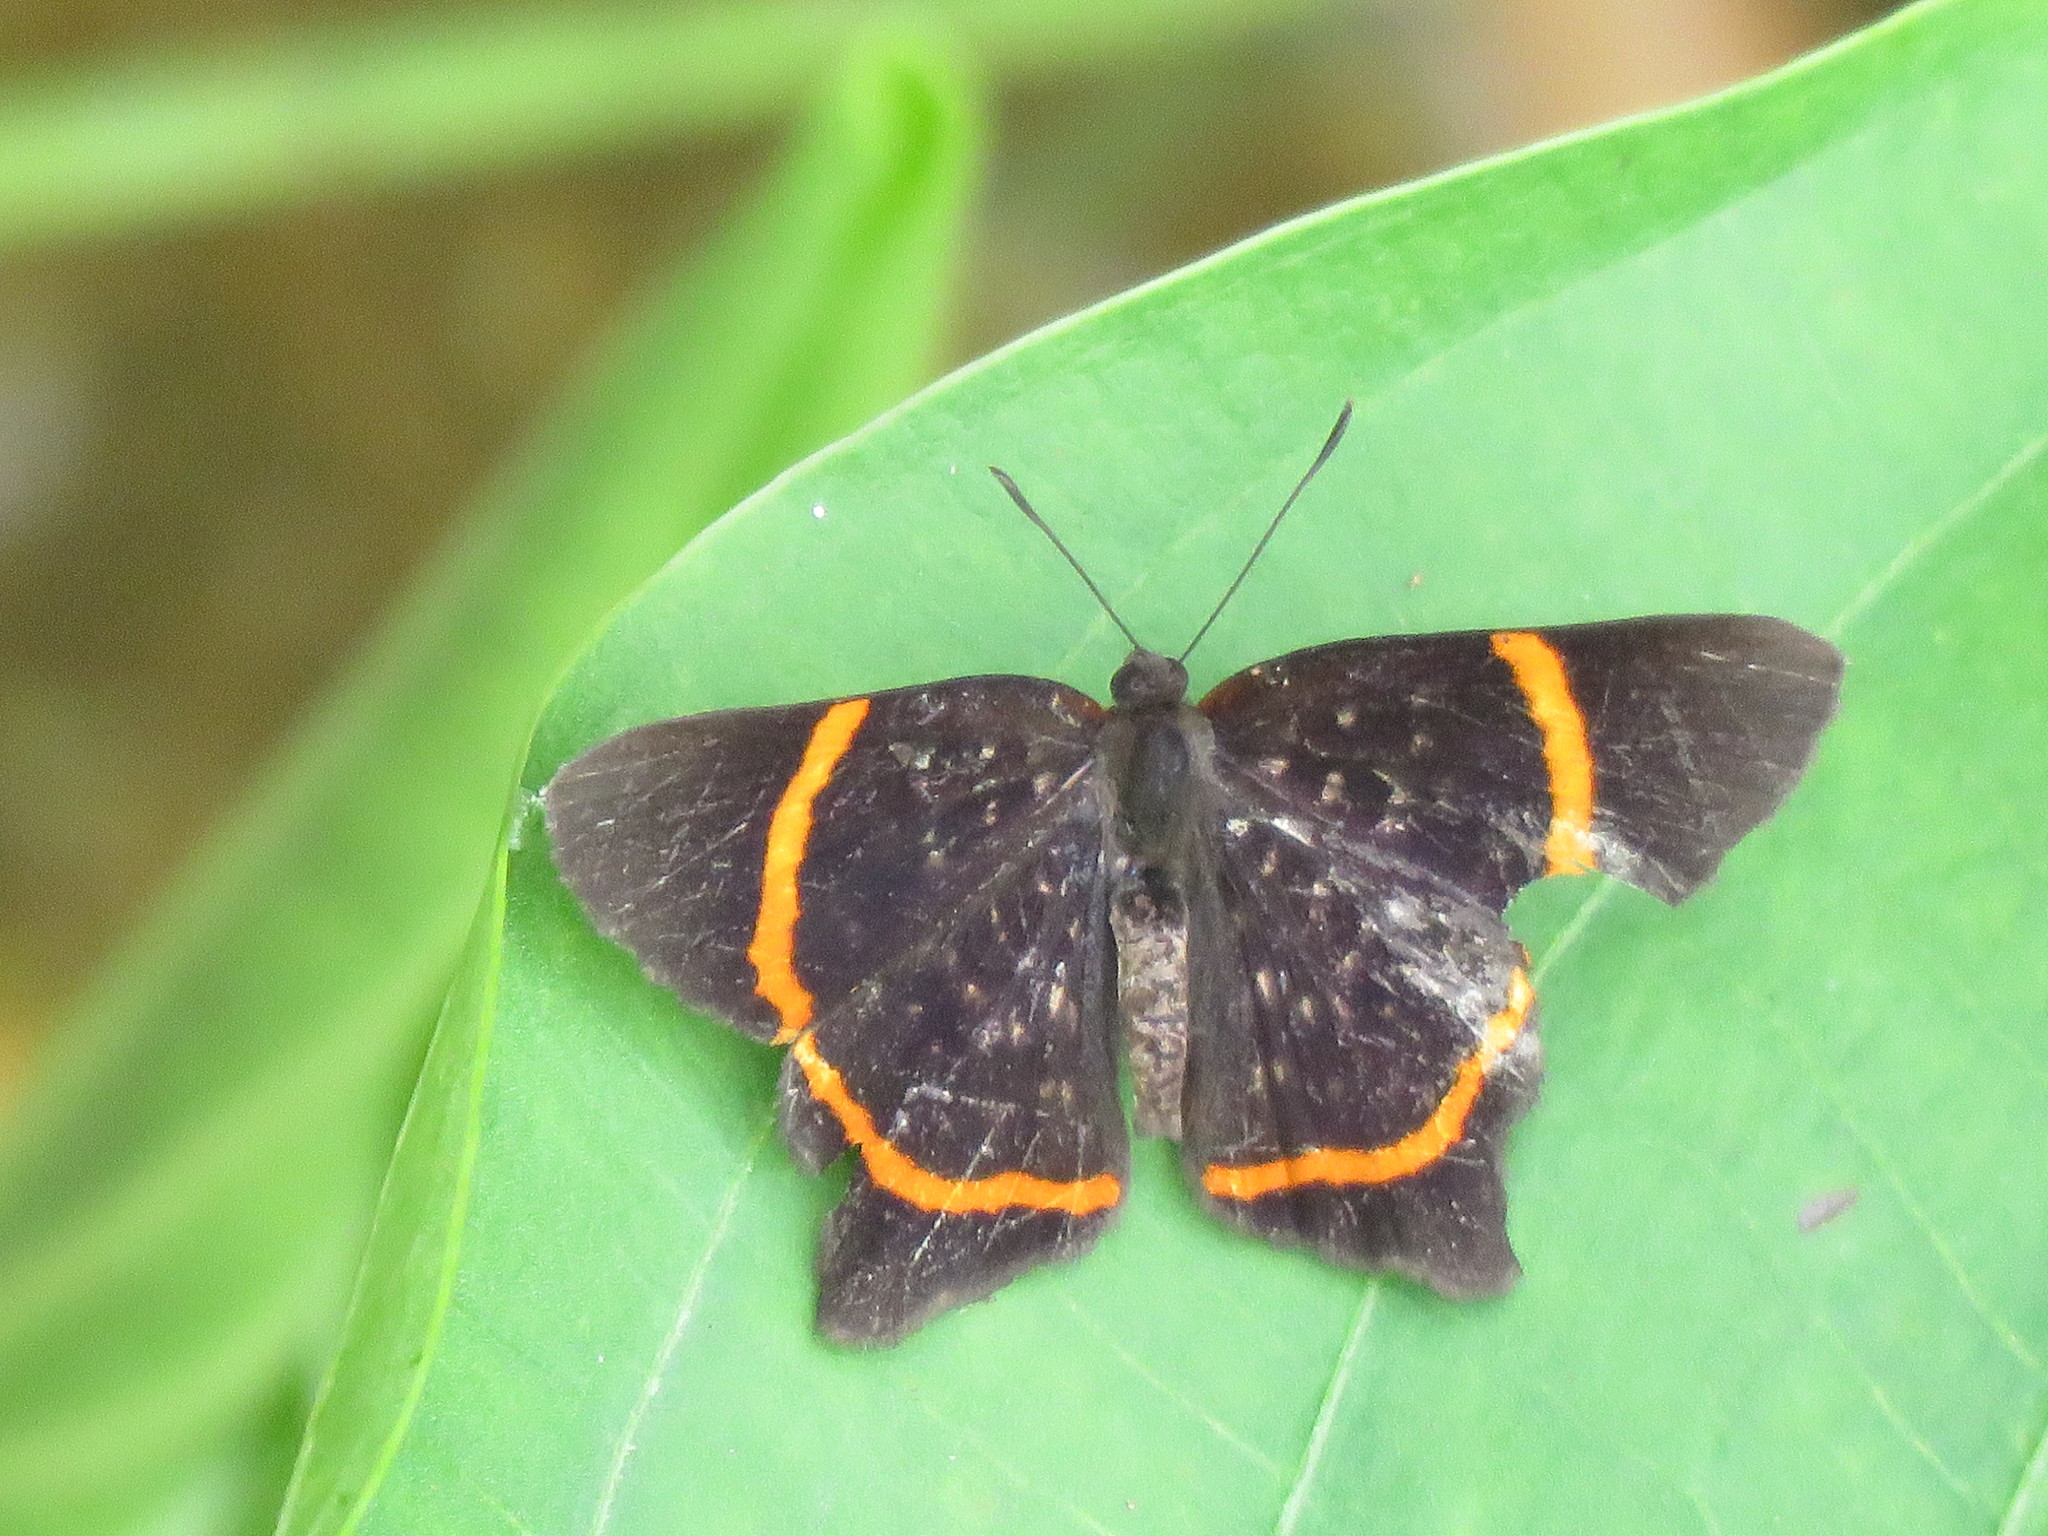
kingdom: Animalia
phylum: Arthropoda
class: Insecta
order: Lepidoptera
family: Riodinidae
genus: Riodina
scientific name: Riodina lysippus
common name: Lysippus metalmark
